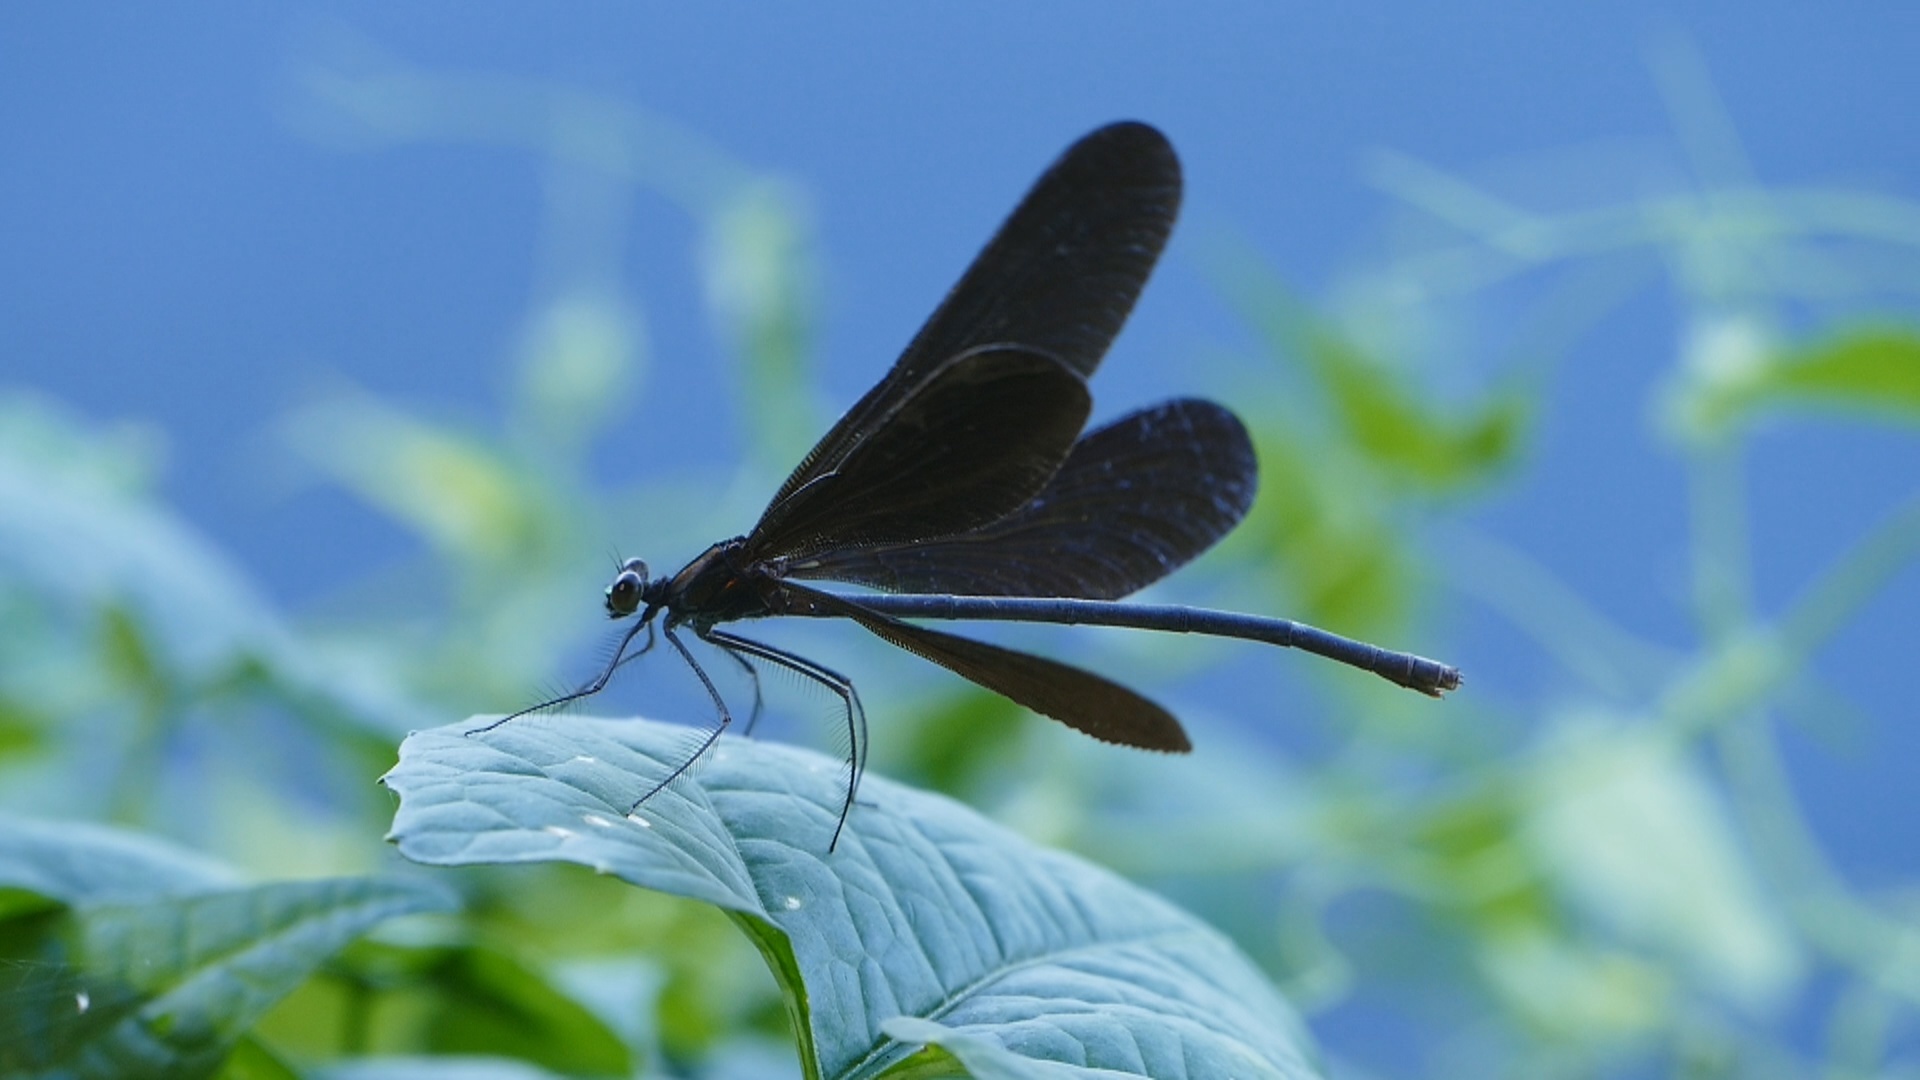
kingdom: Animalia
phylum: Arthropoda
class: Insecta
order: Odonata
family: Calopterygidae
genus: Atrocalopteryx
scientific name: Atrocalopteryx atrata
